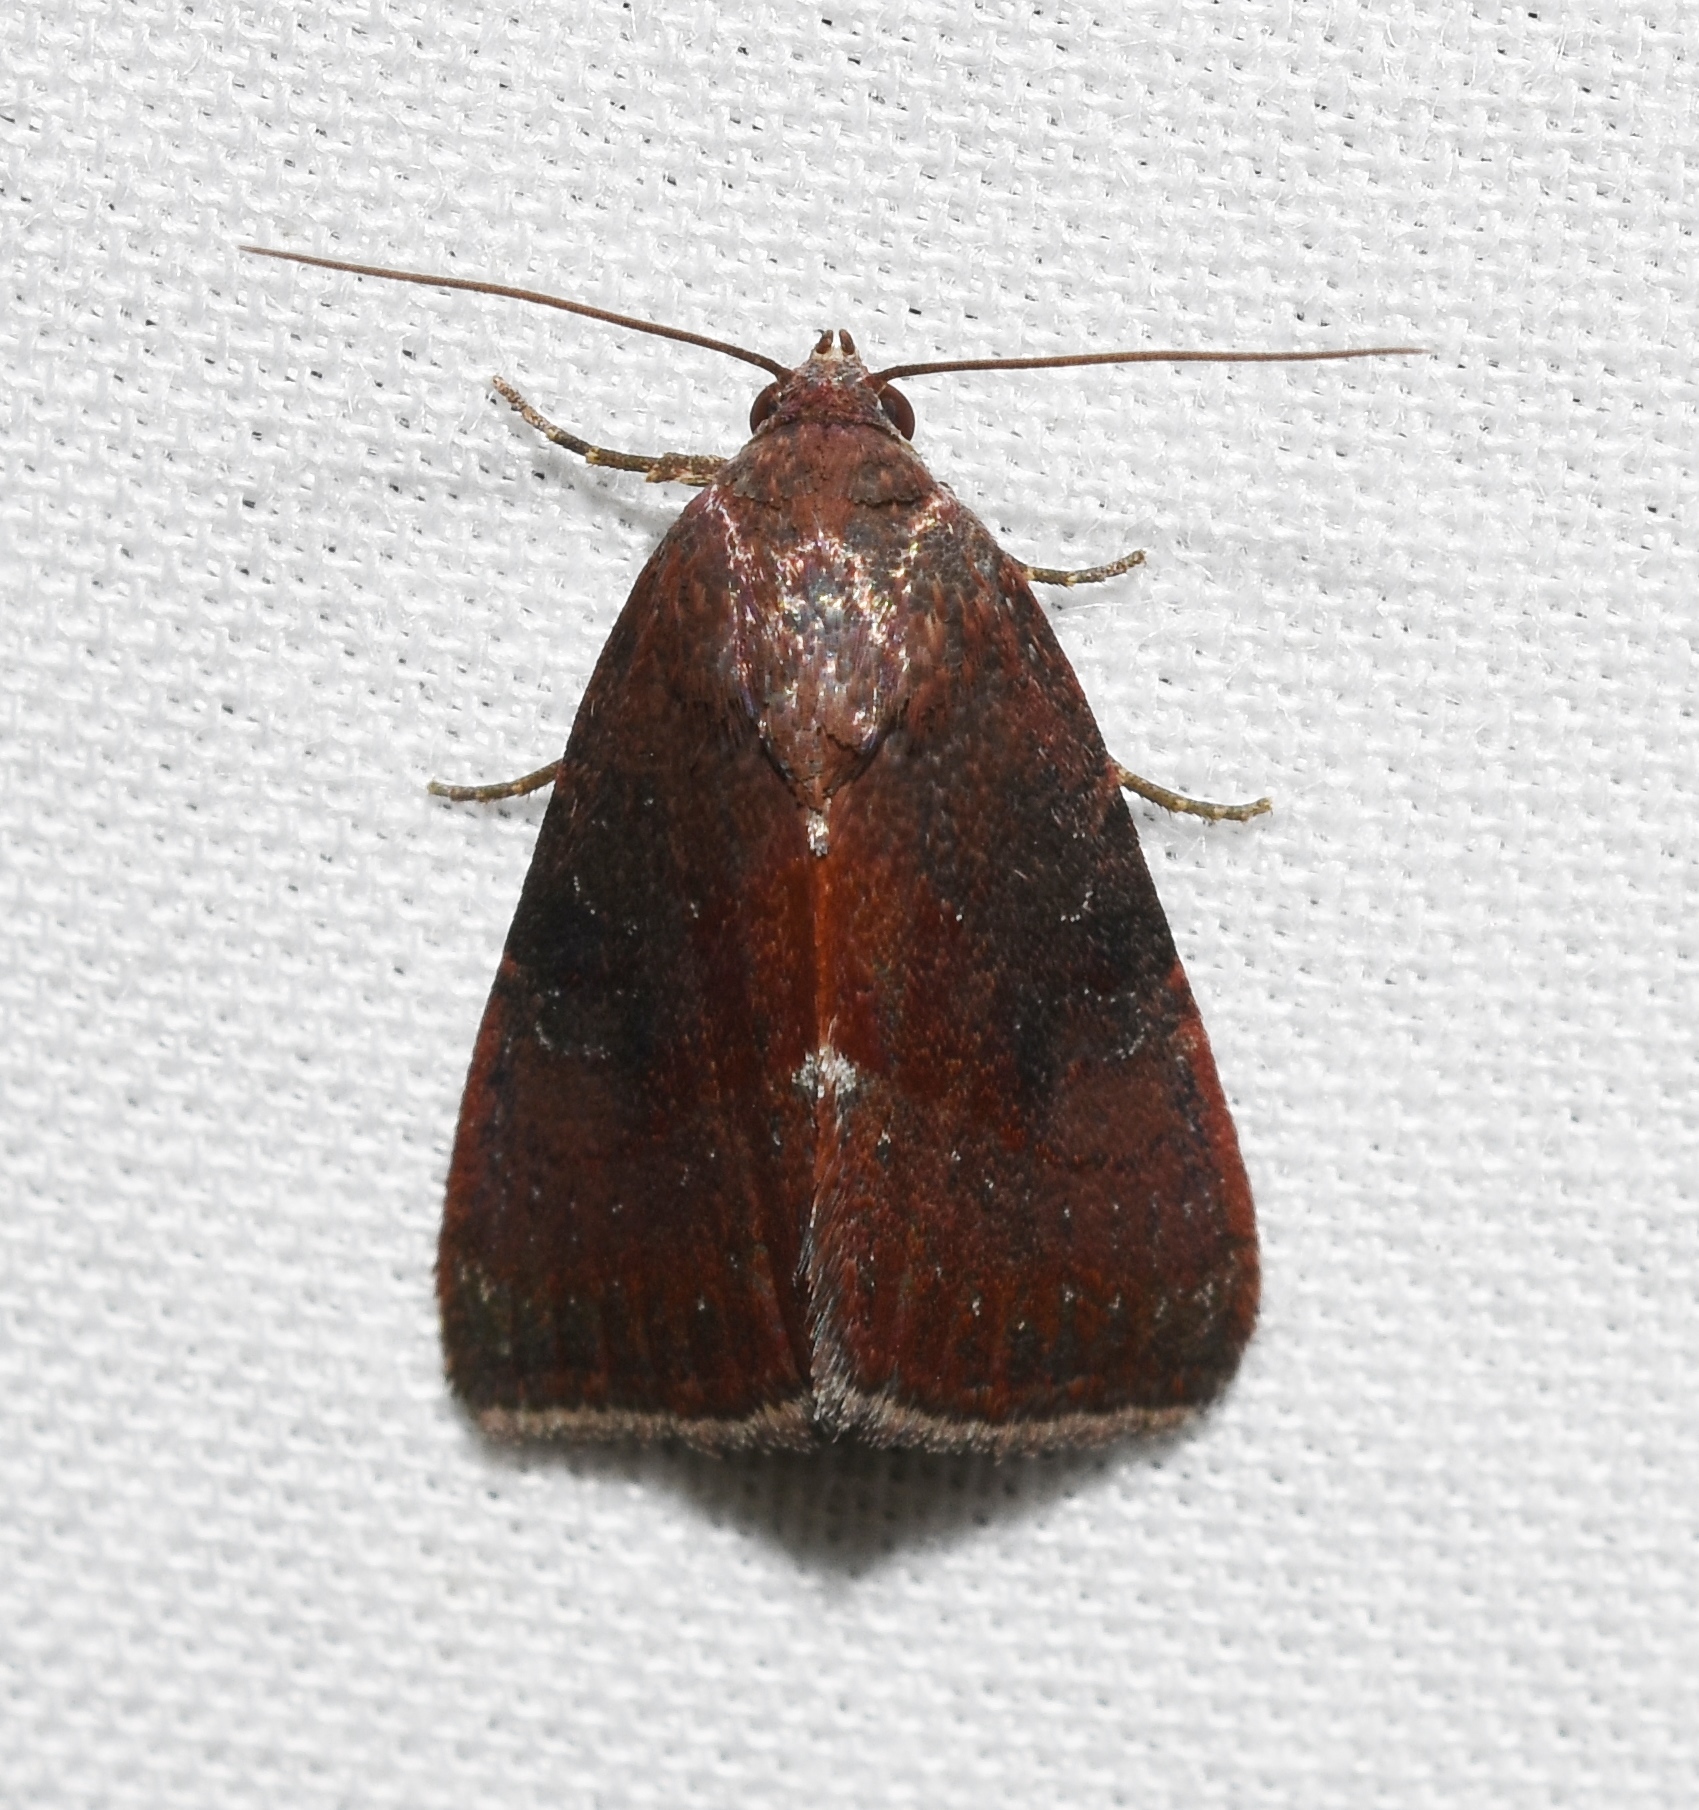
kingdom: Animalia
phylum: Arthropoda
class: Insecta
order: Lepidoptera
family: Noctuidae
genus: Galgula
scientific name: Galgula partita
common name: Wedgeling
